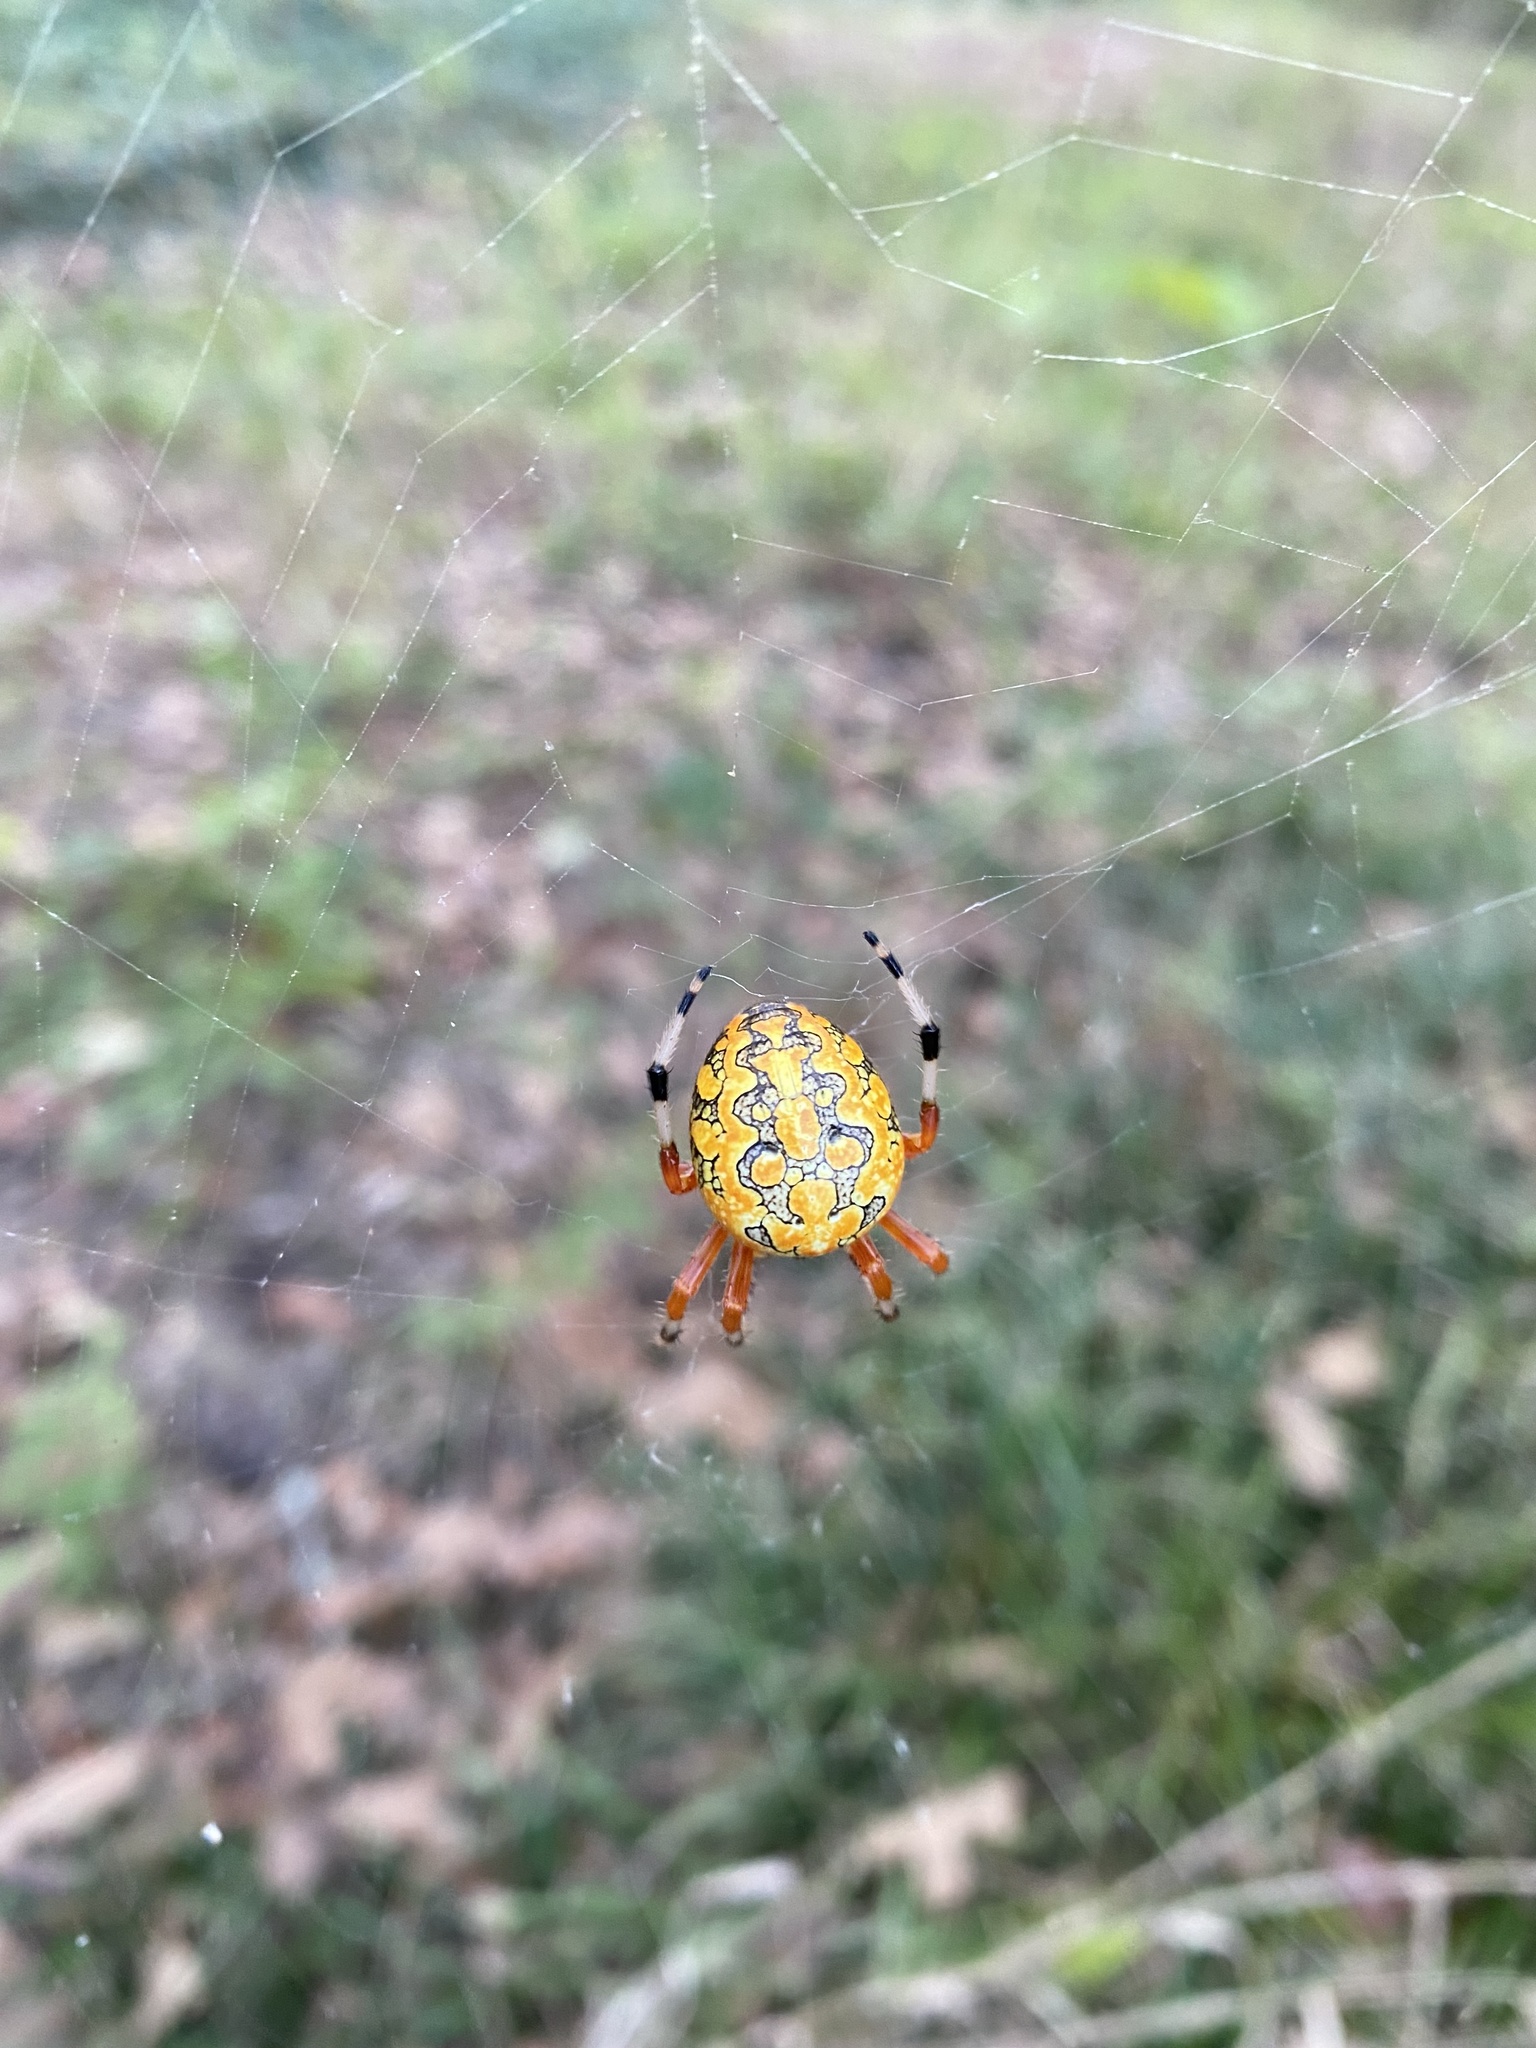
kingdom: Animalia
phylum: Arthropoda
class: Arachnida
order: Araneae
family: Araneidae
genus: Araneus
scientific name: Araneus marmoreus
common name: Marbled orbweaver
